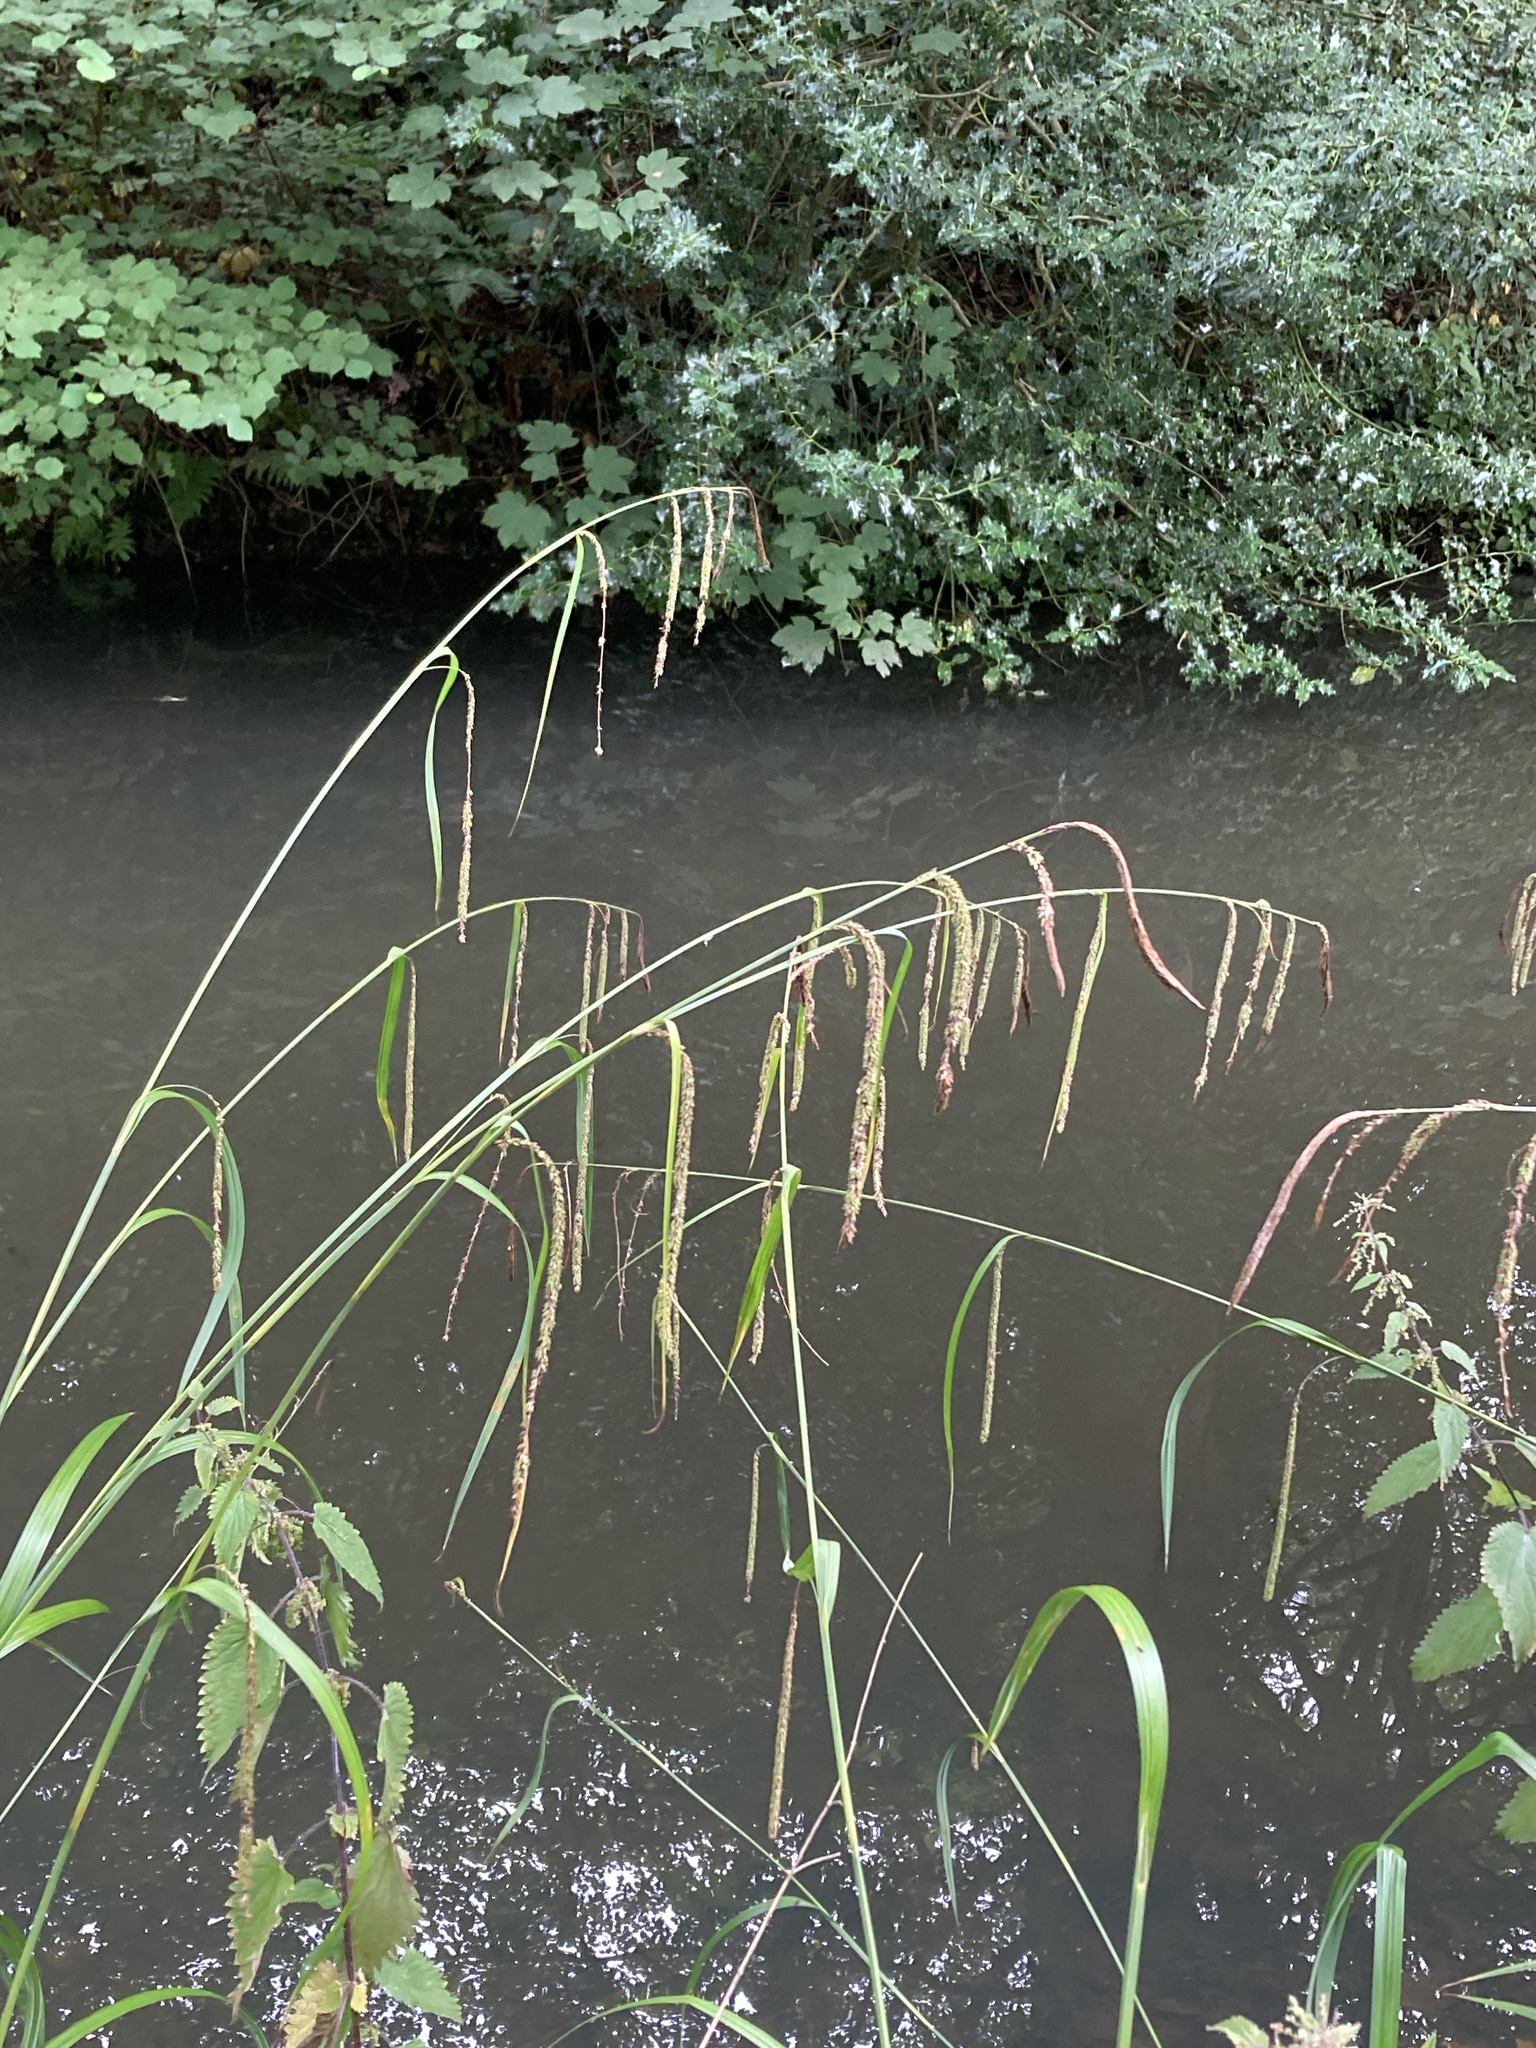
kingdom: Plantae
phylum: Tracheophyta
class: Liliopsida
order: Poales
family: Cyperaceae
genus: Carex
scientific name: Carex pendula
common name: Pendulous sedge
